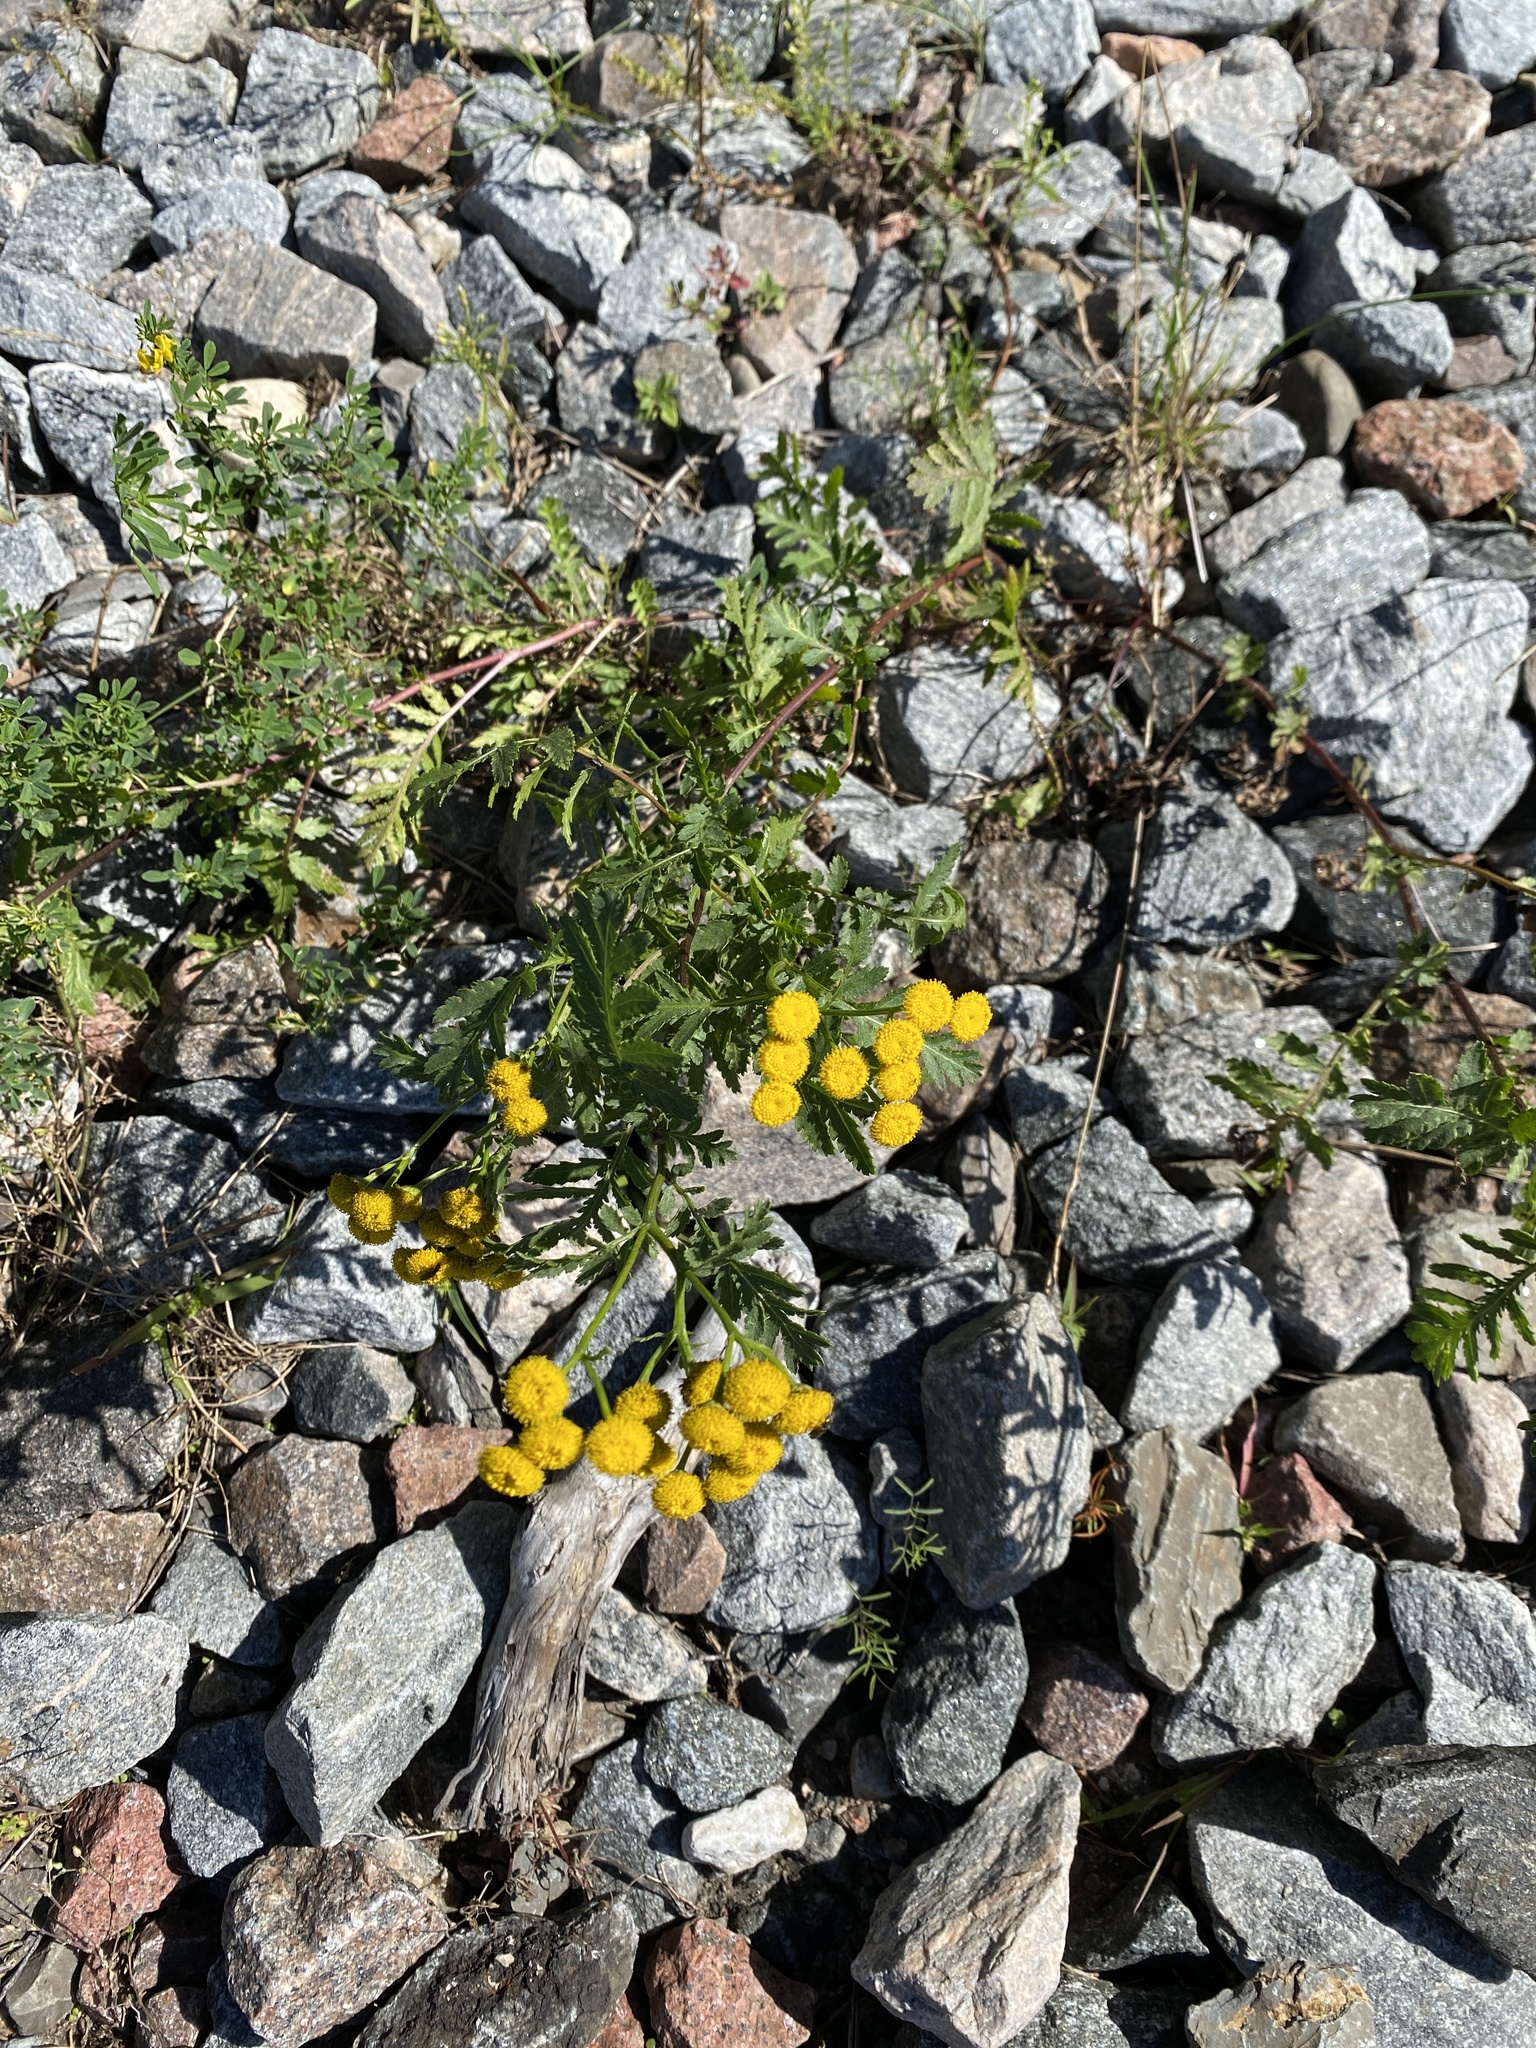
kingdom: Plantae
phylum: Tracheophyta
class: Magnoliopsida
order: Asterales
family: Asteraceae
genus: Tanacetum
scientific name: Tanacetum vulgare
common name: Common tansy
